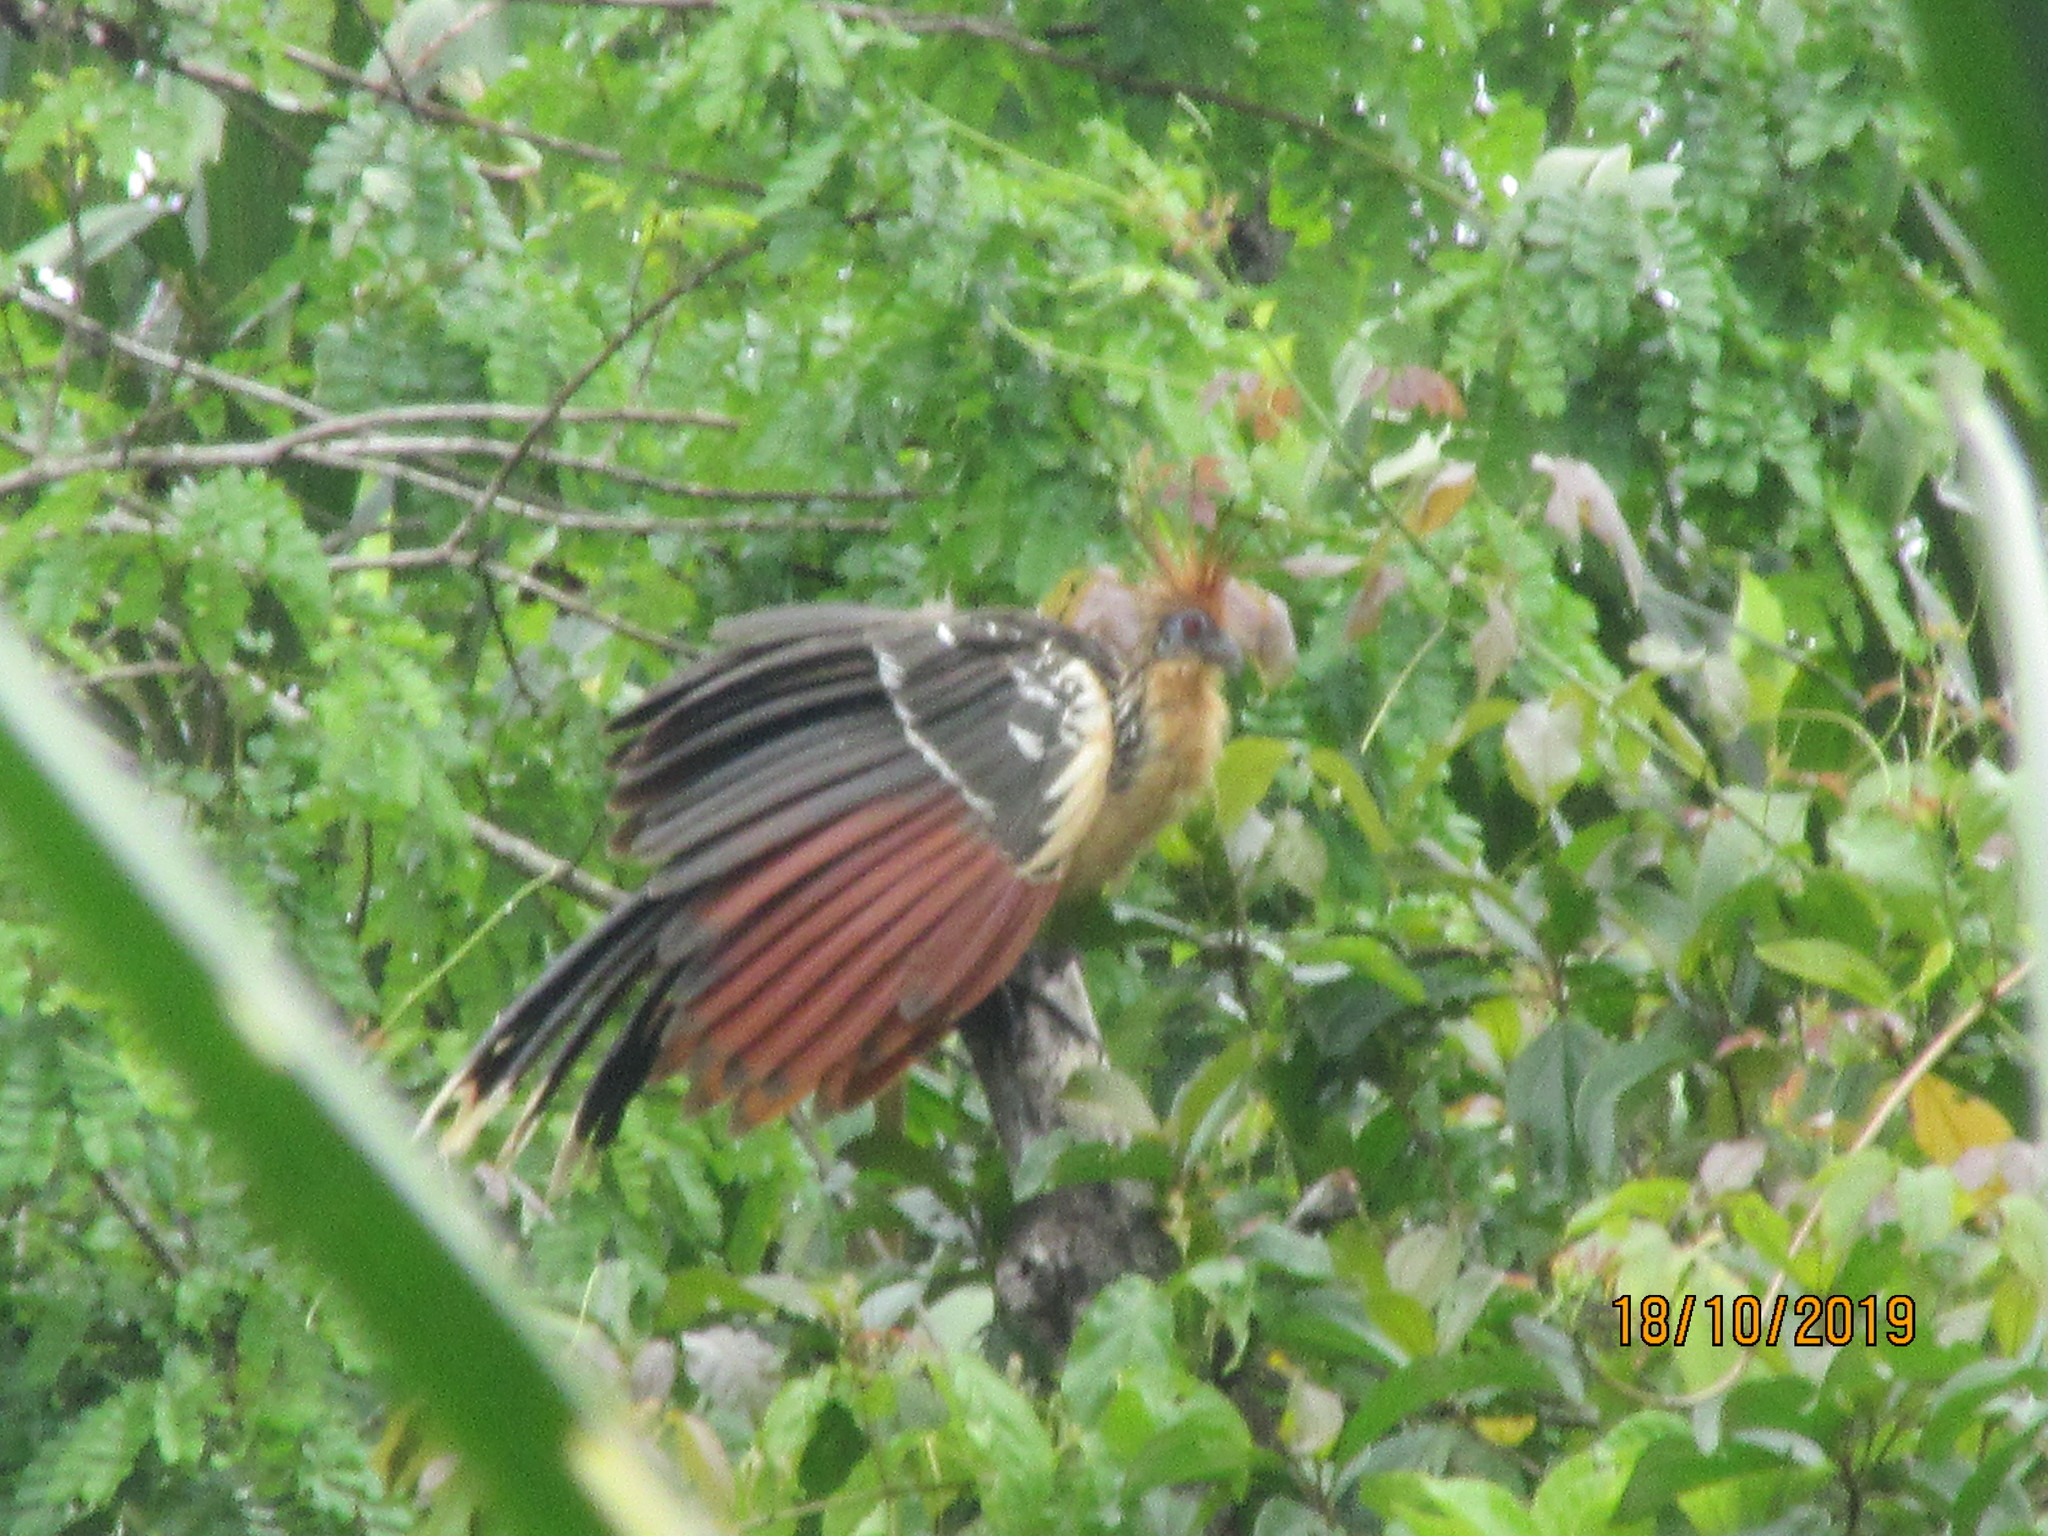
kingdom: Animalia
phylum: Chordata
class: Aves
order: Opisthocomiformes
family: Opisthocomidae
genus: Opisthocomus
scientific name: Opisthocomus hoazin
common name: Hoatzin
